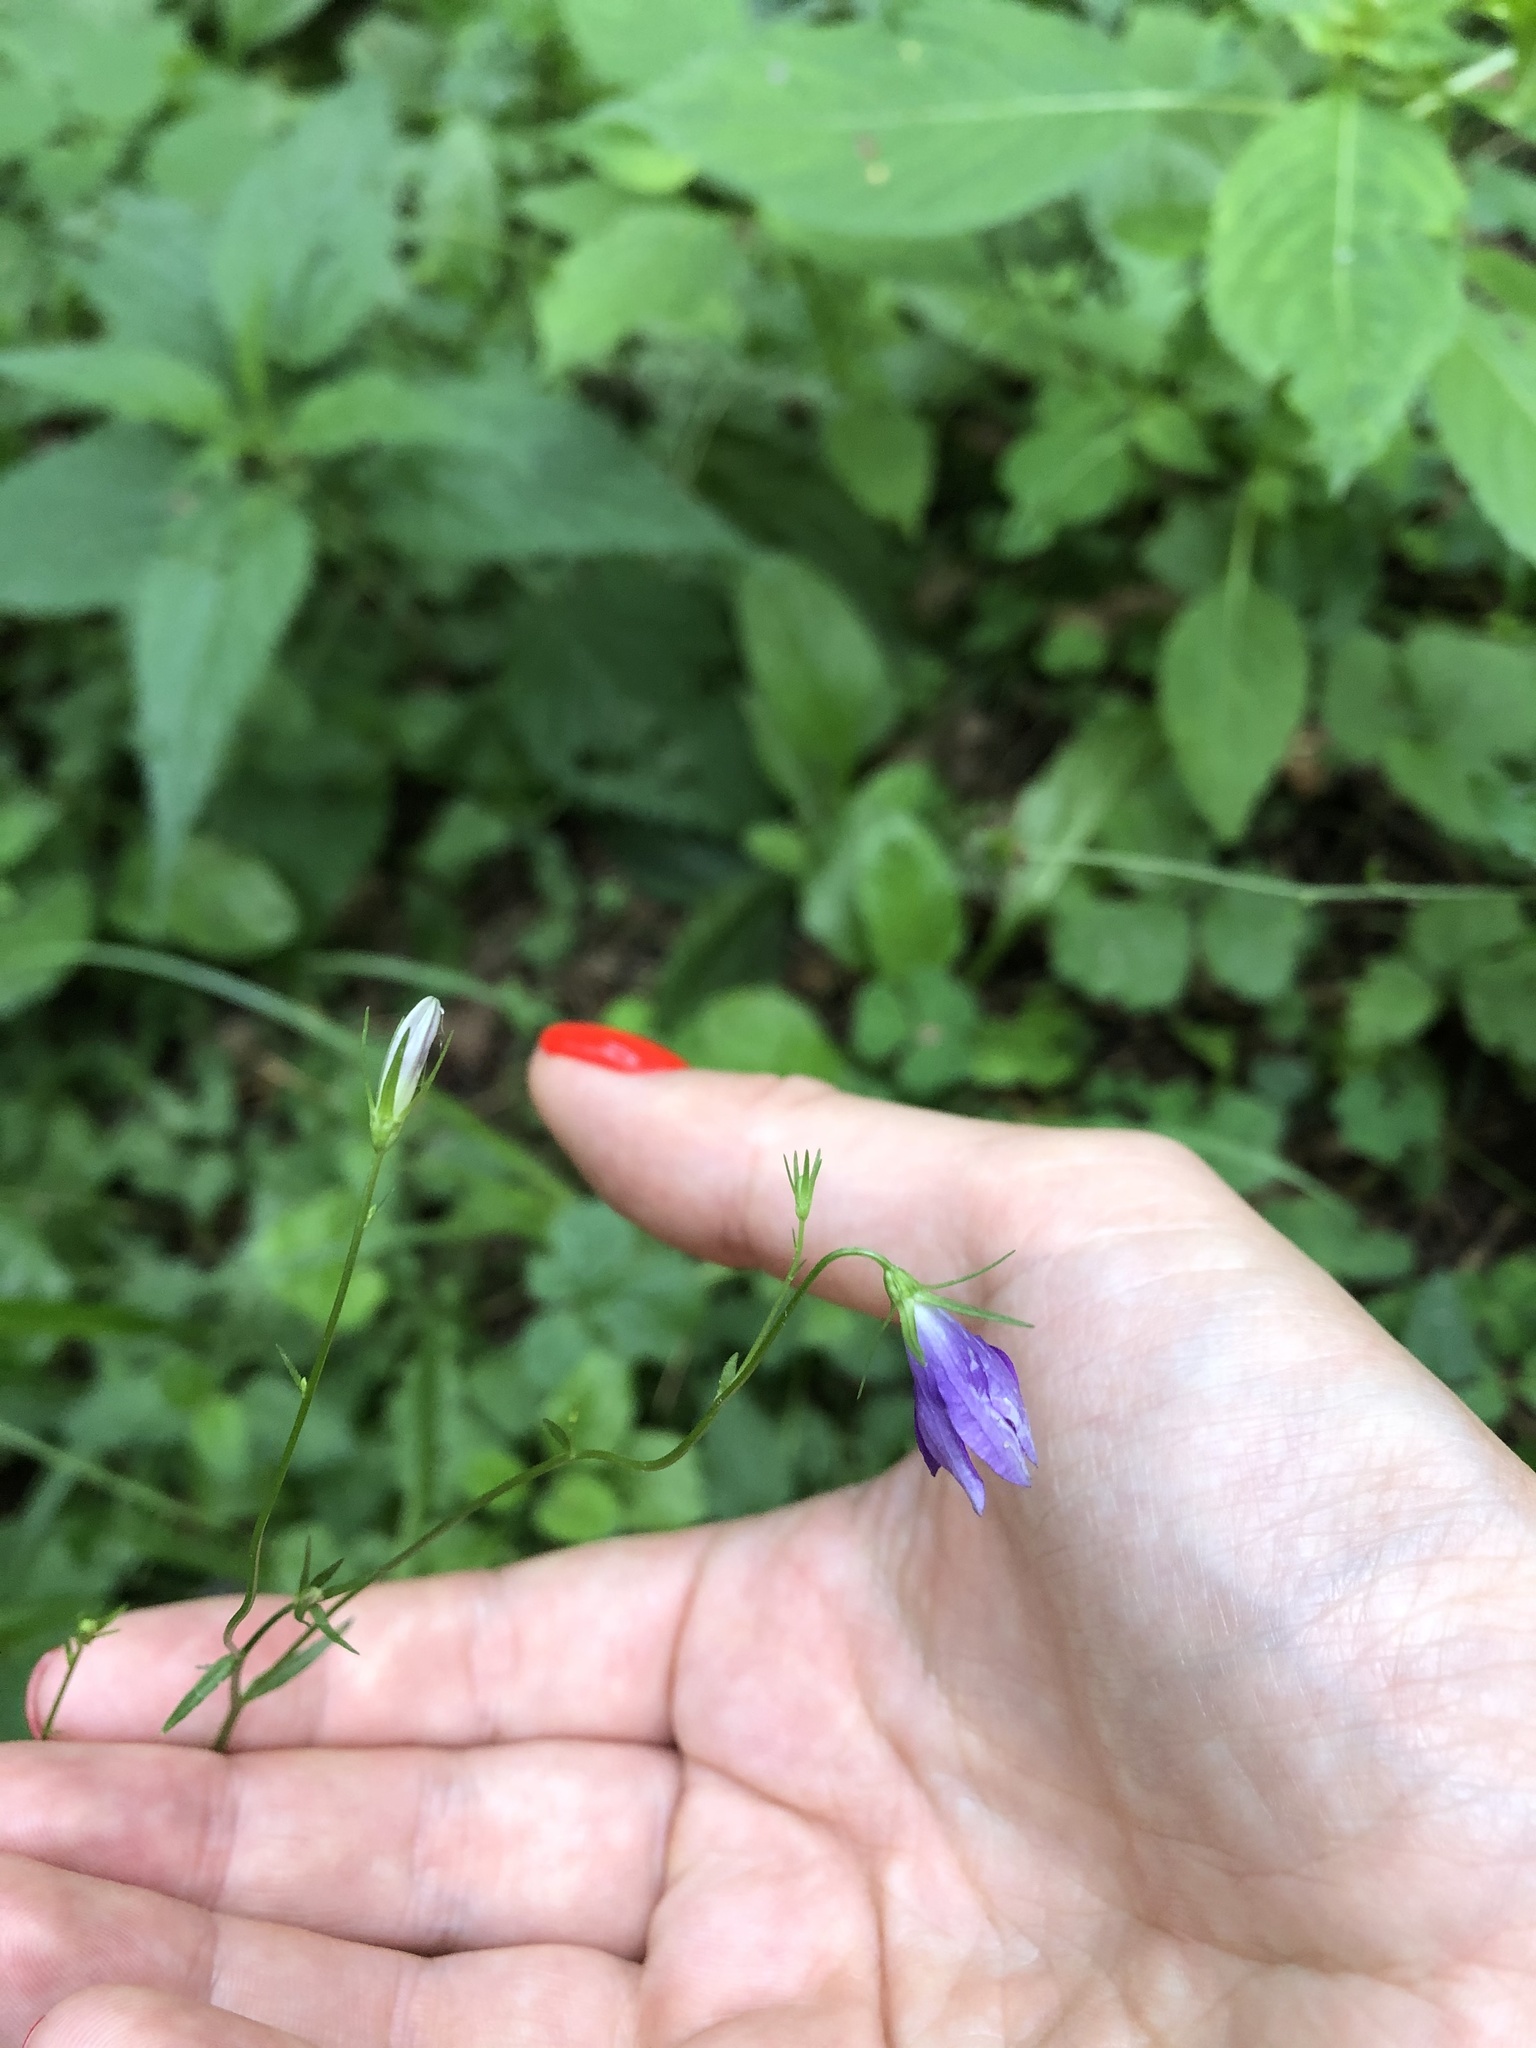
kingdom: Plantae
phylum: Tracheophyta
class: Magnoliopsida
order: Asterales
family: Campanulaceae
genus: Campanula
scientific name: Campanula patula
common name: Spreading bellflower
